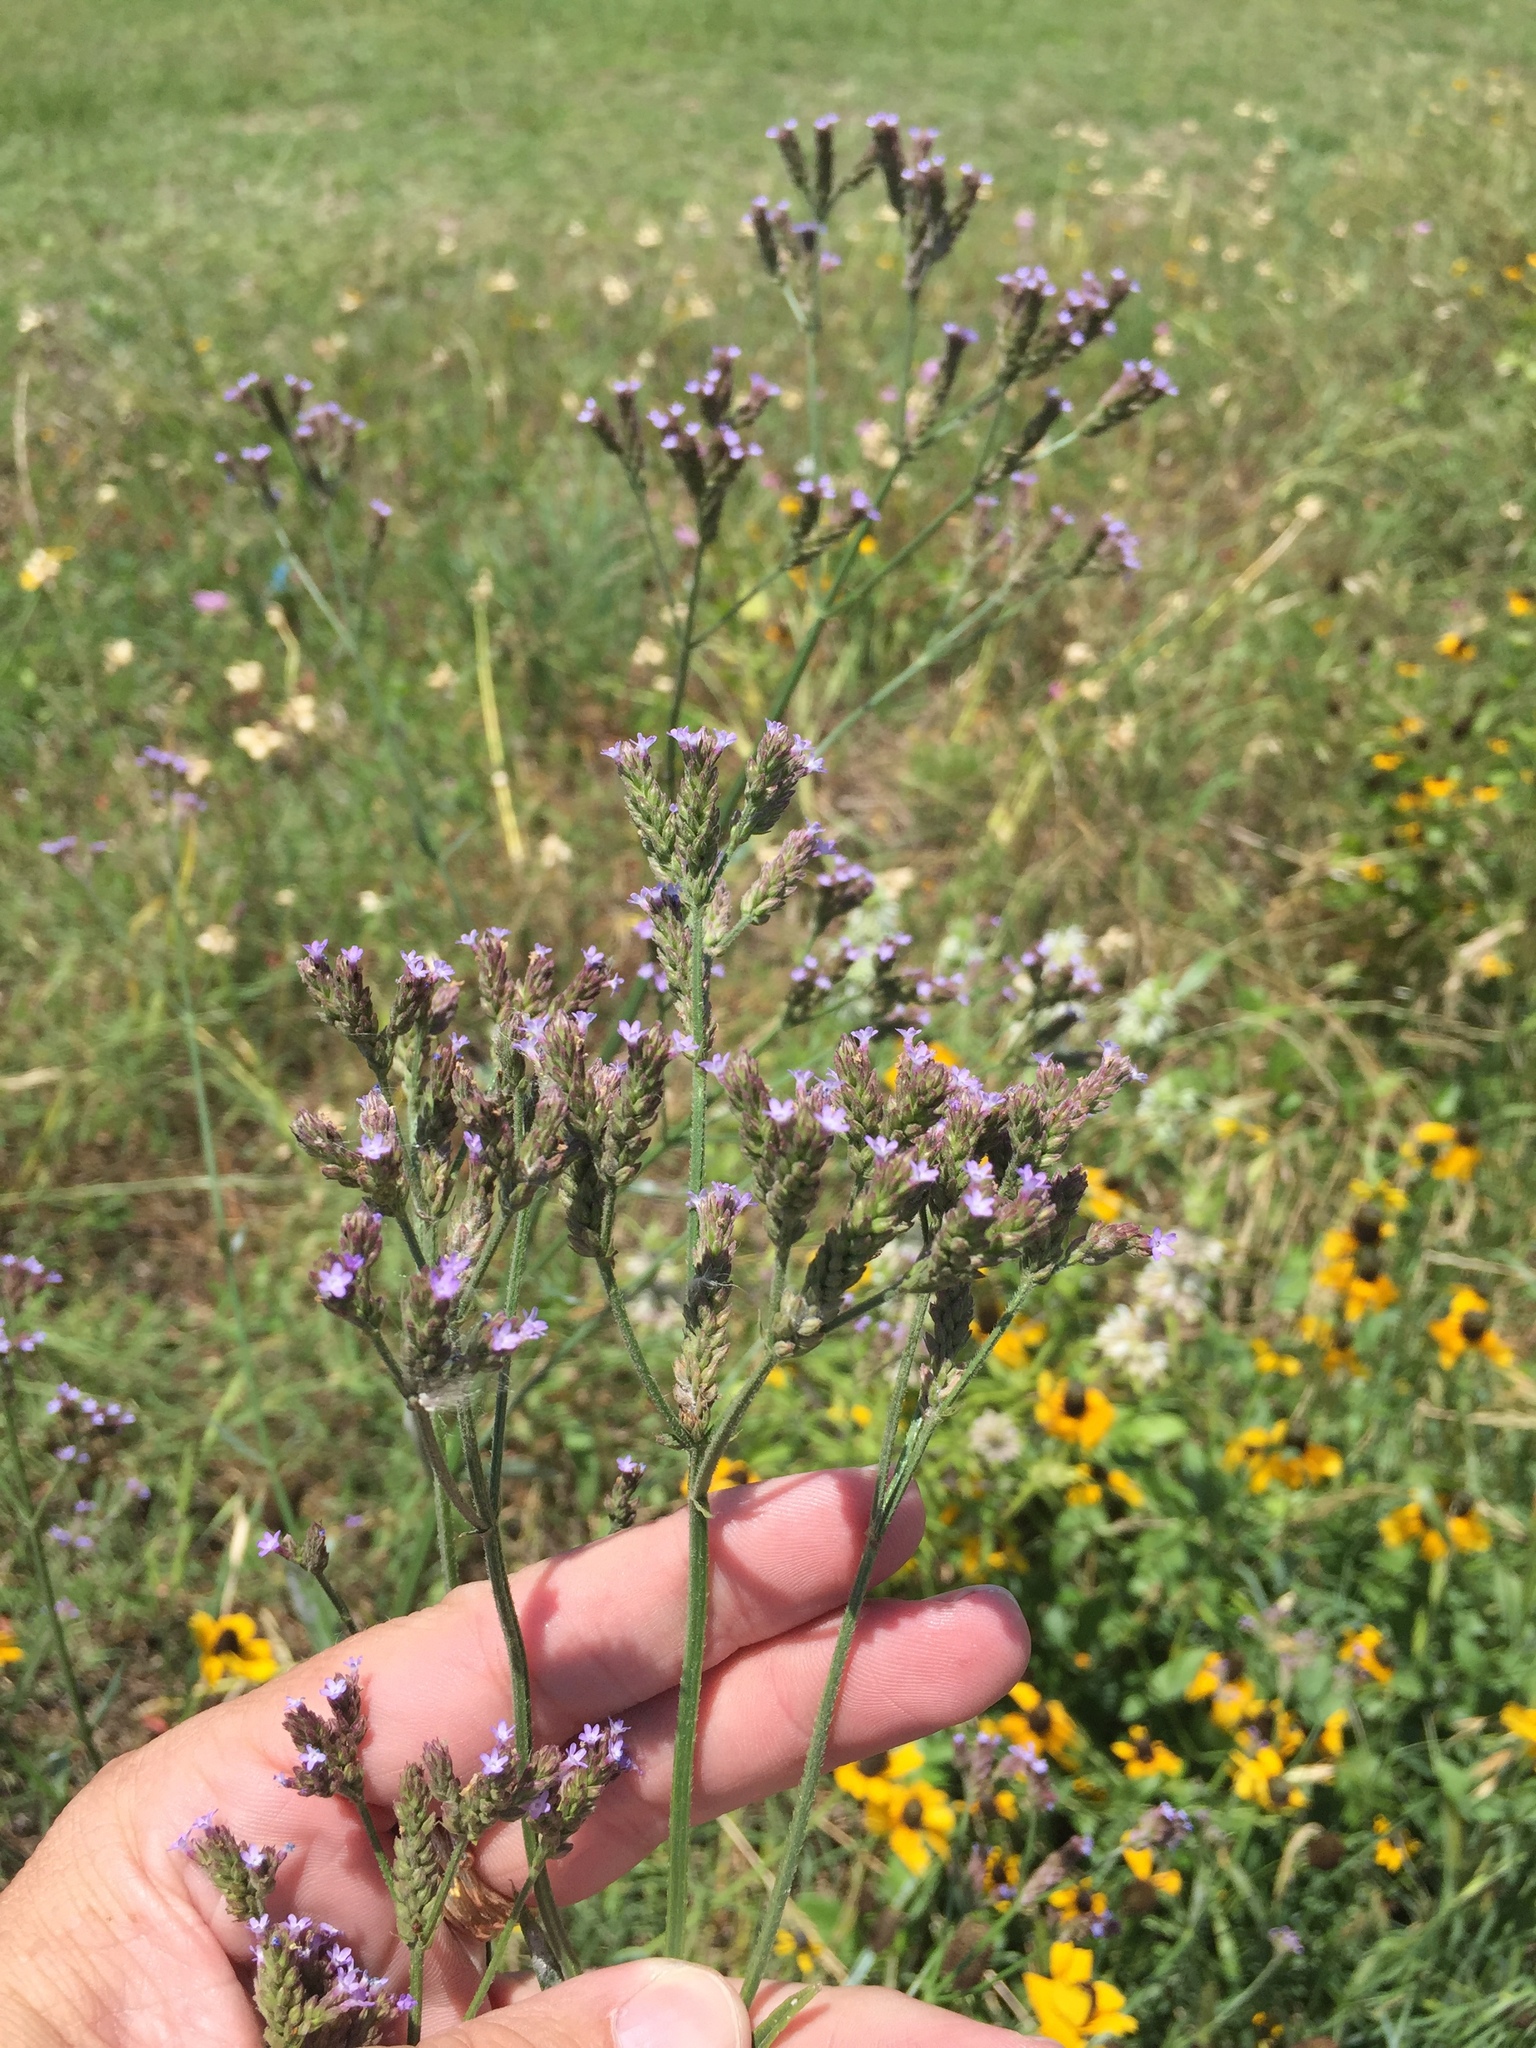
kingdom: Plantae
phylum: Tracheophyta
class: Magnoliopsida
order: Lamiales
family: Verbenaceae
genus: Verbena
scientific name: Verbena brasiliensis
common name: Brazilian vervain
